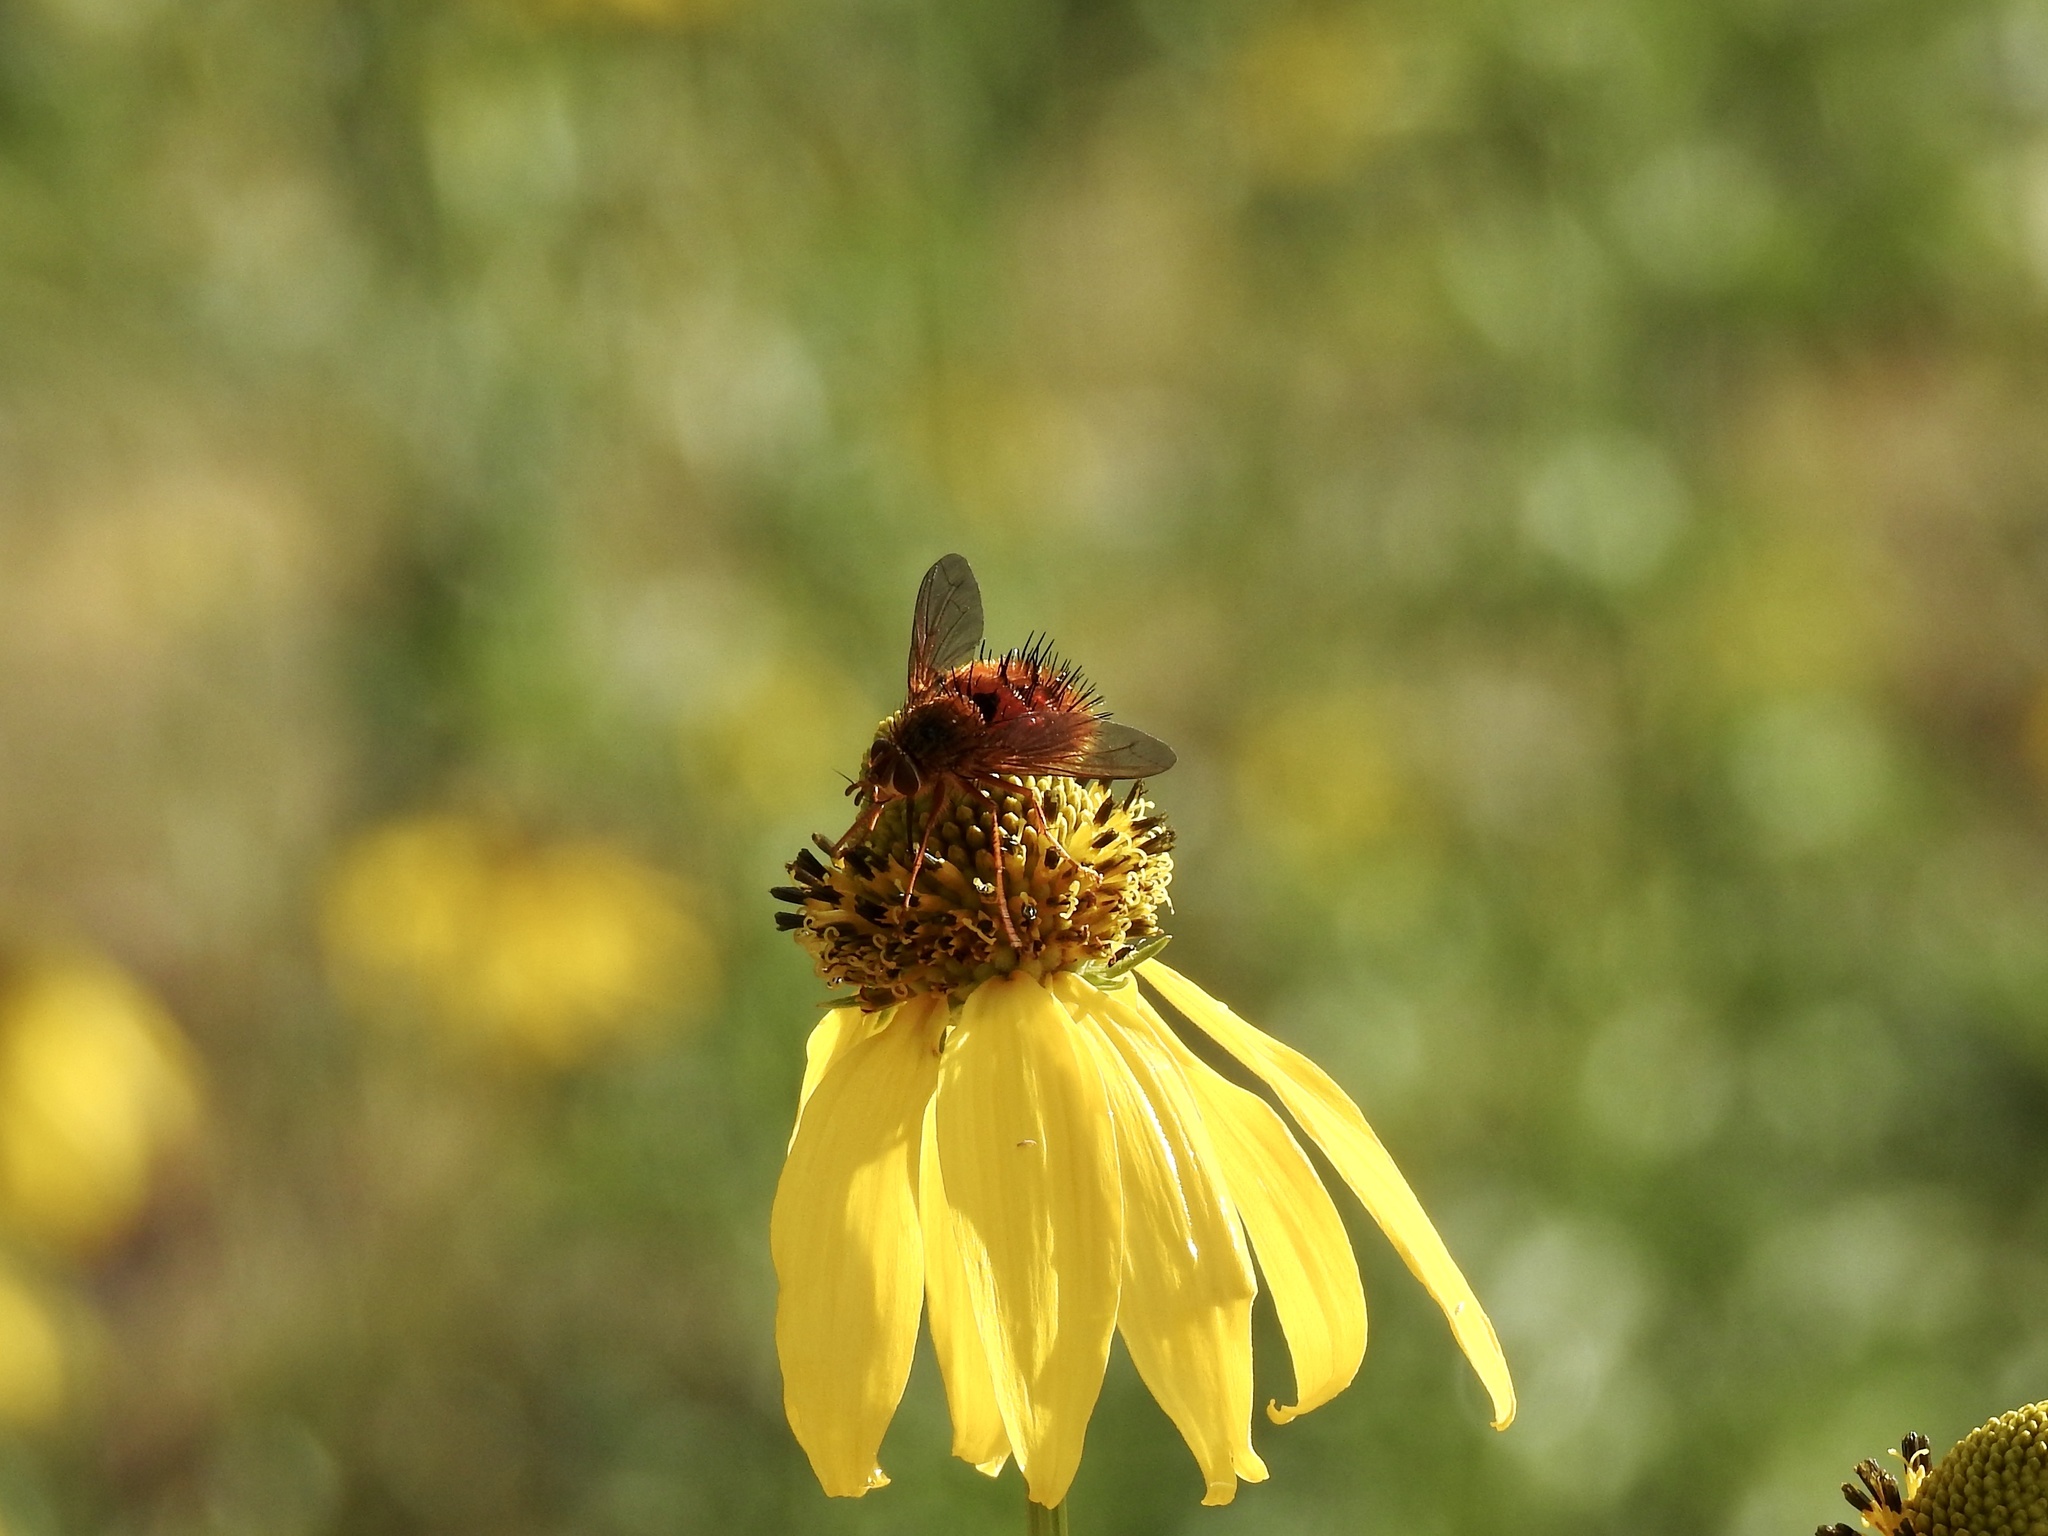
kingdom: Animalia
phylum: Arthropoda
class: Insecta
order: Diptera
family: Tachinidae
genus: Adejeania
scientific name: Adejeania vexatrix
